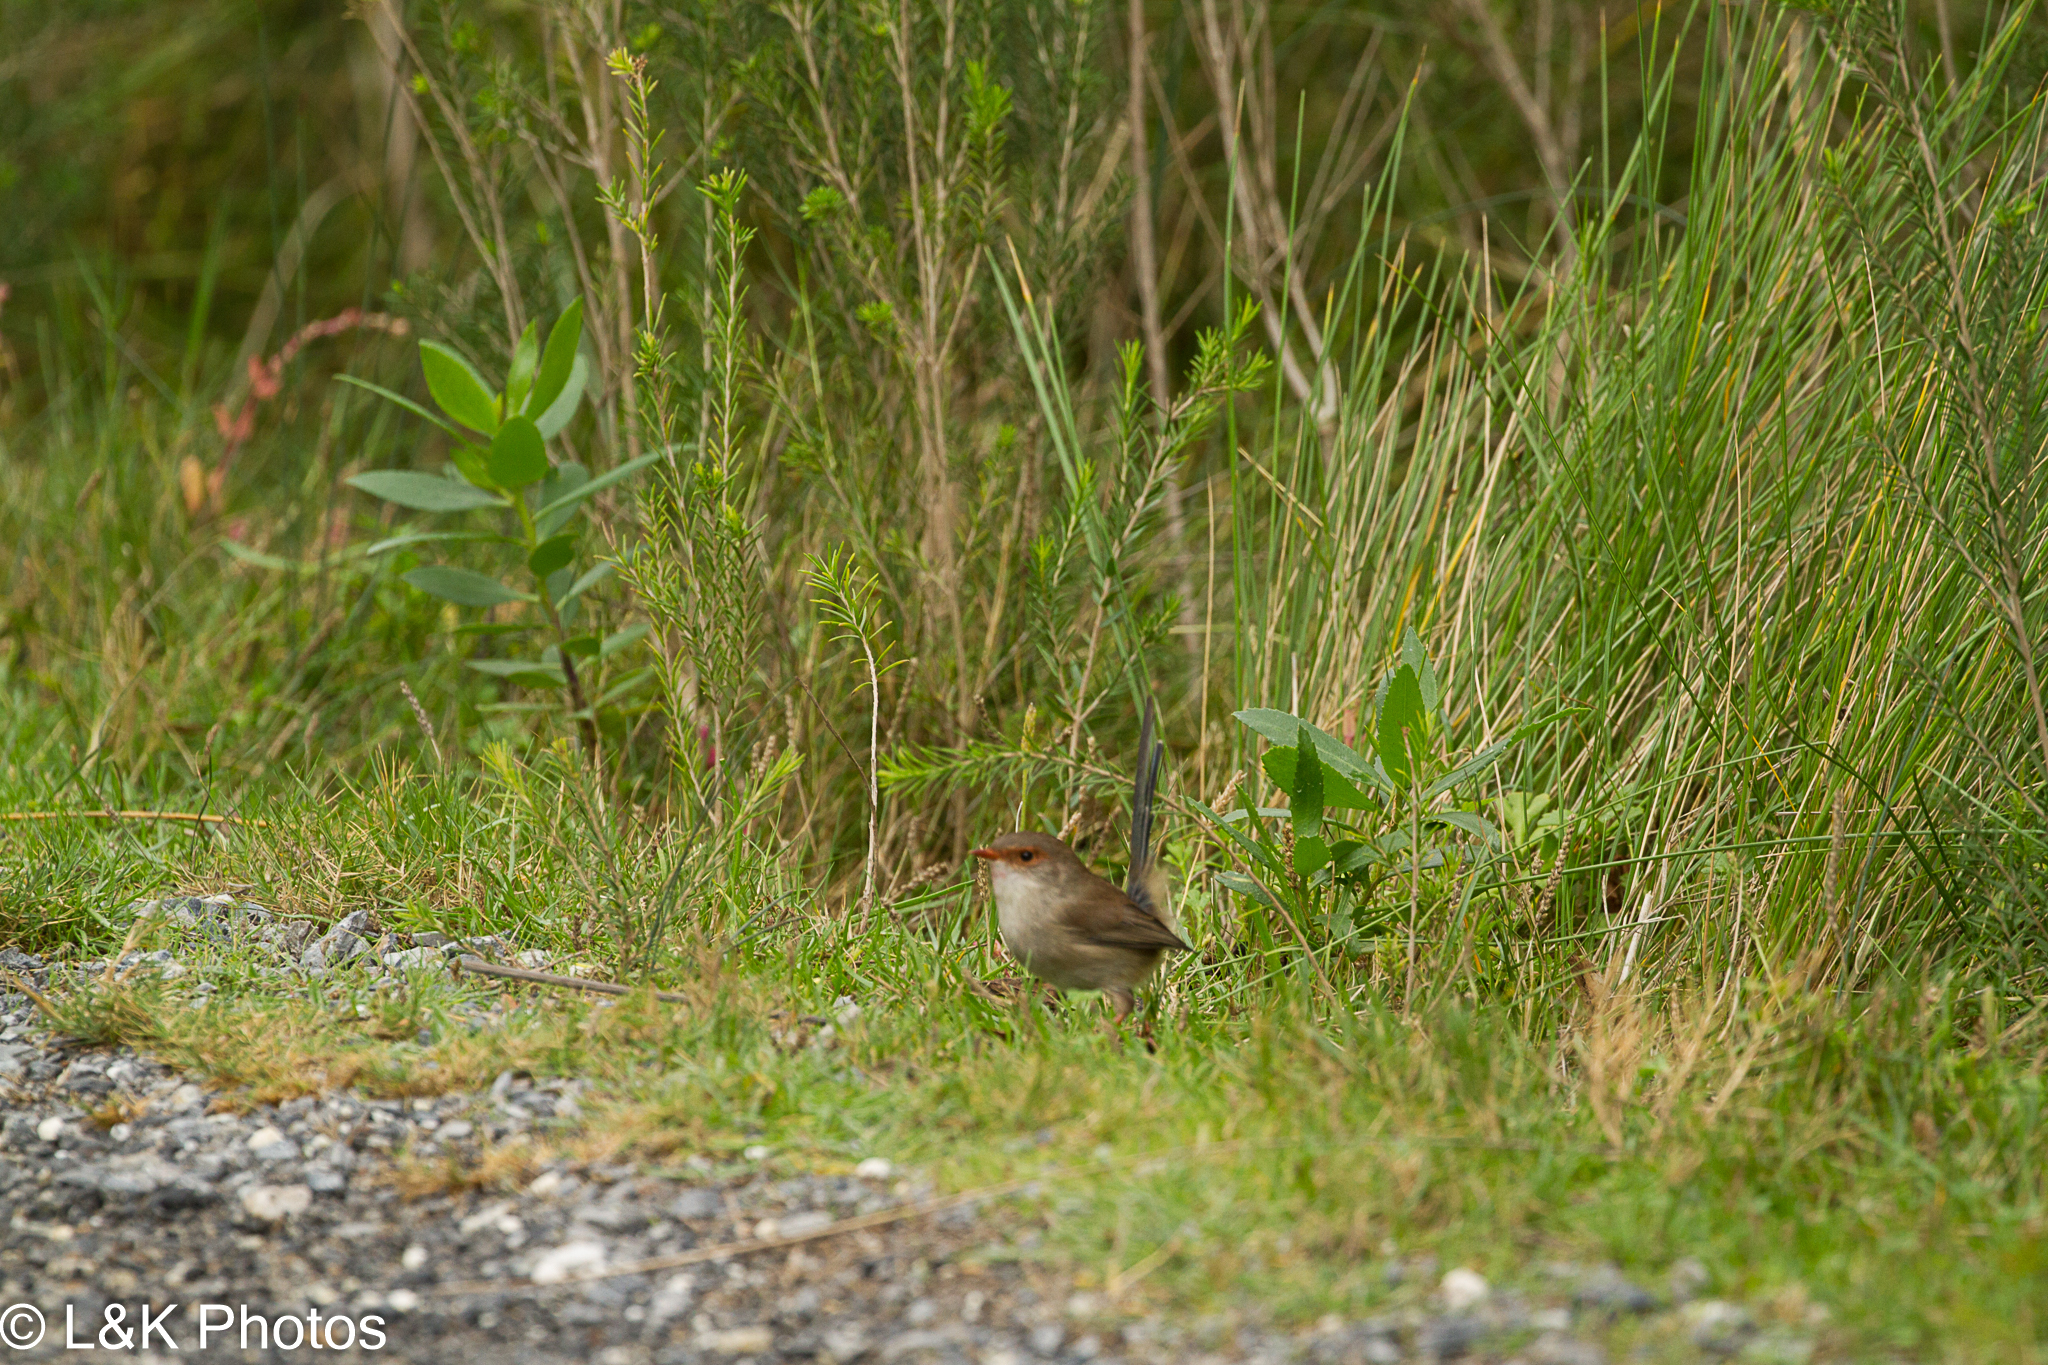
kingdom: Animalia
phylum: Chordata
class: Aves
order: Passeriformes
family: Maluridae
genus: Malurus
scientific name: Malurus cyaneus
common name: Superb fairywren
